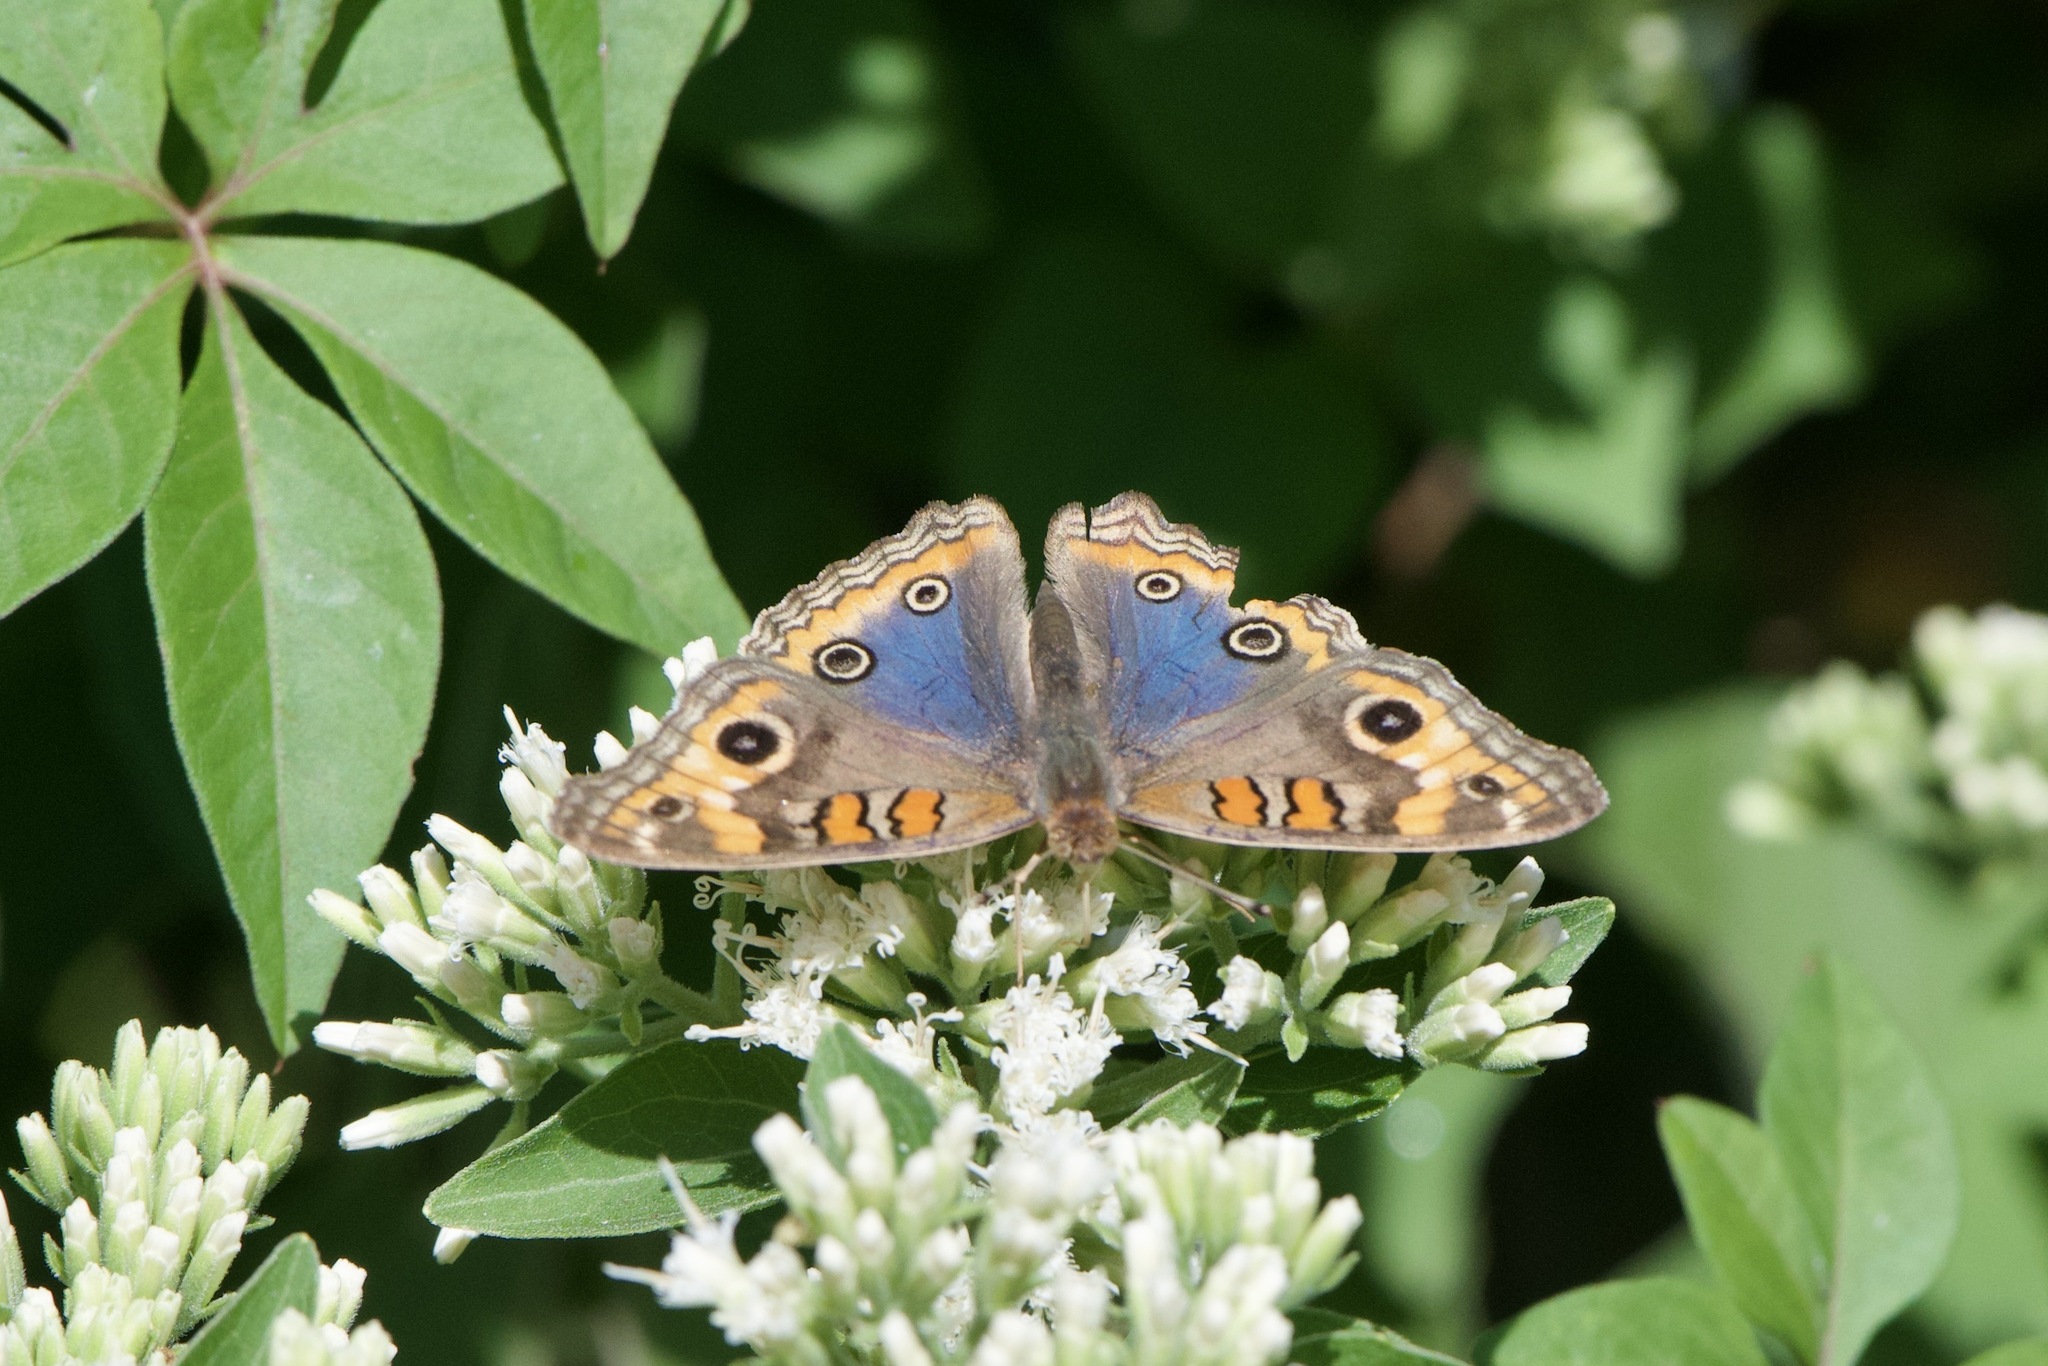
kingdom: Animalia
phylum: Arthropoda
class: Insecta
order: Lepidoptera
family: Nymphalidae
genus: Junonia
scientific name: Junonia lavinia
